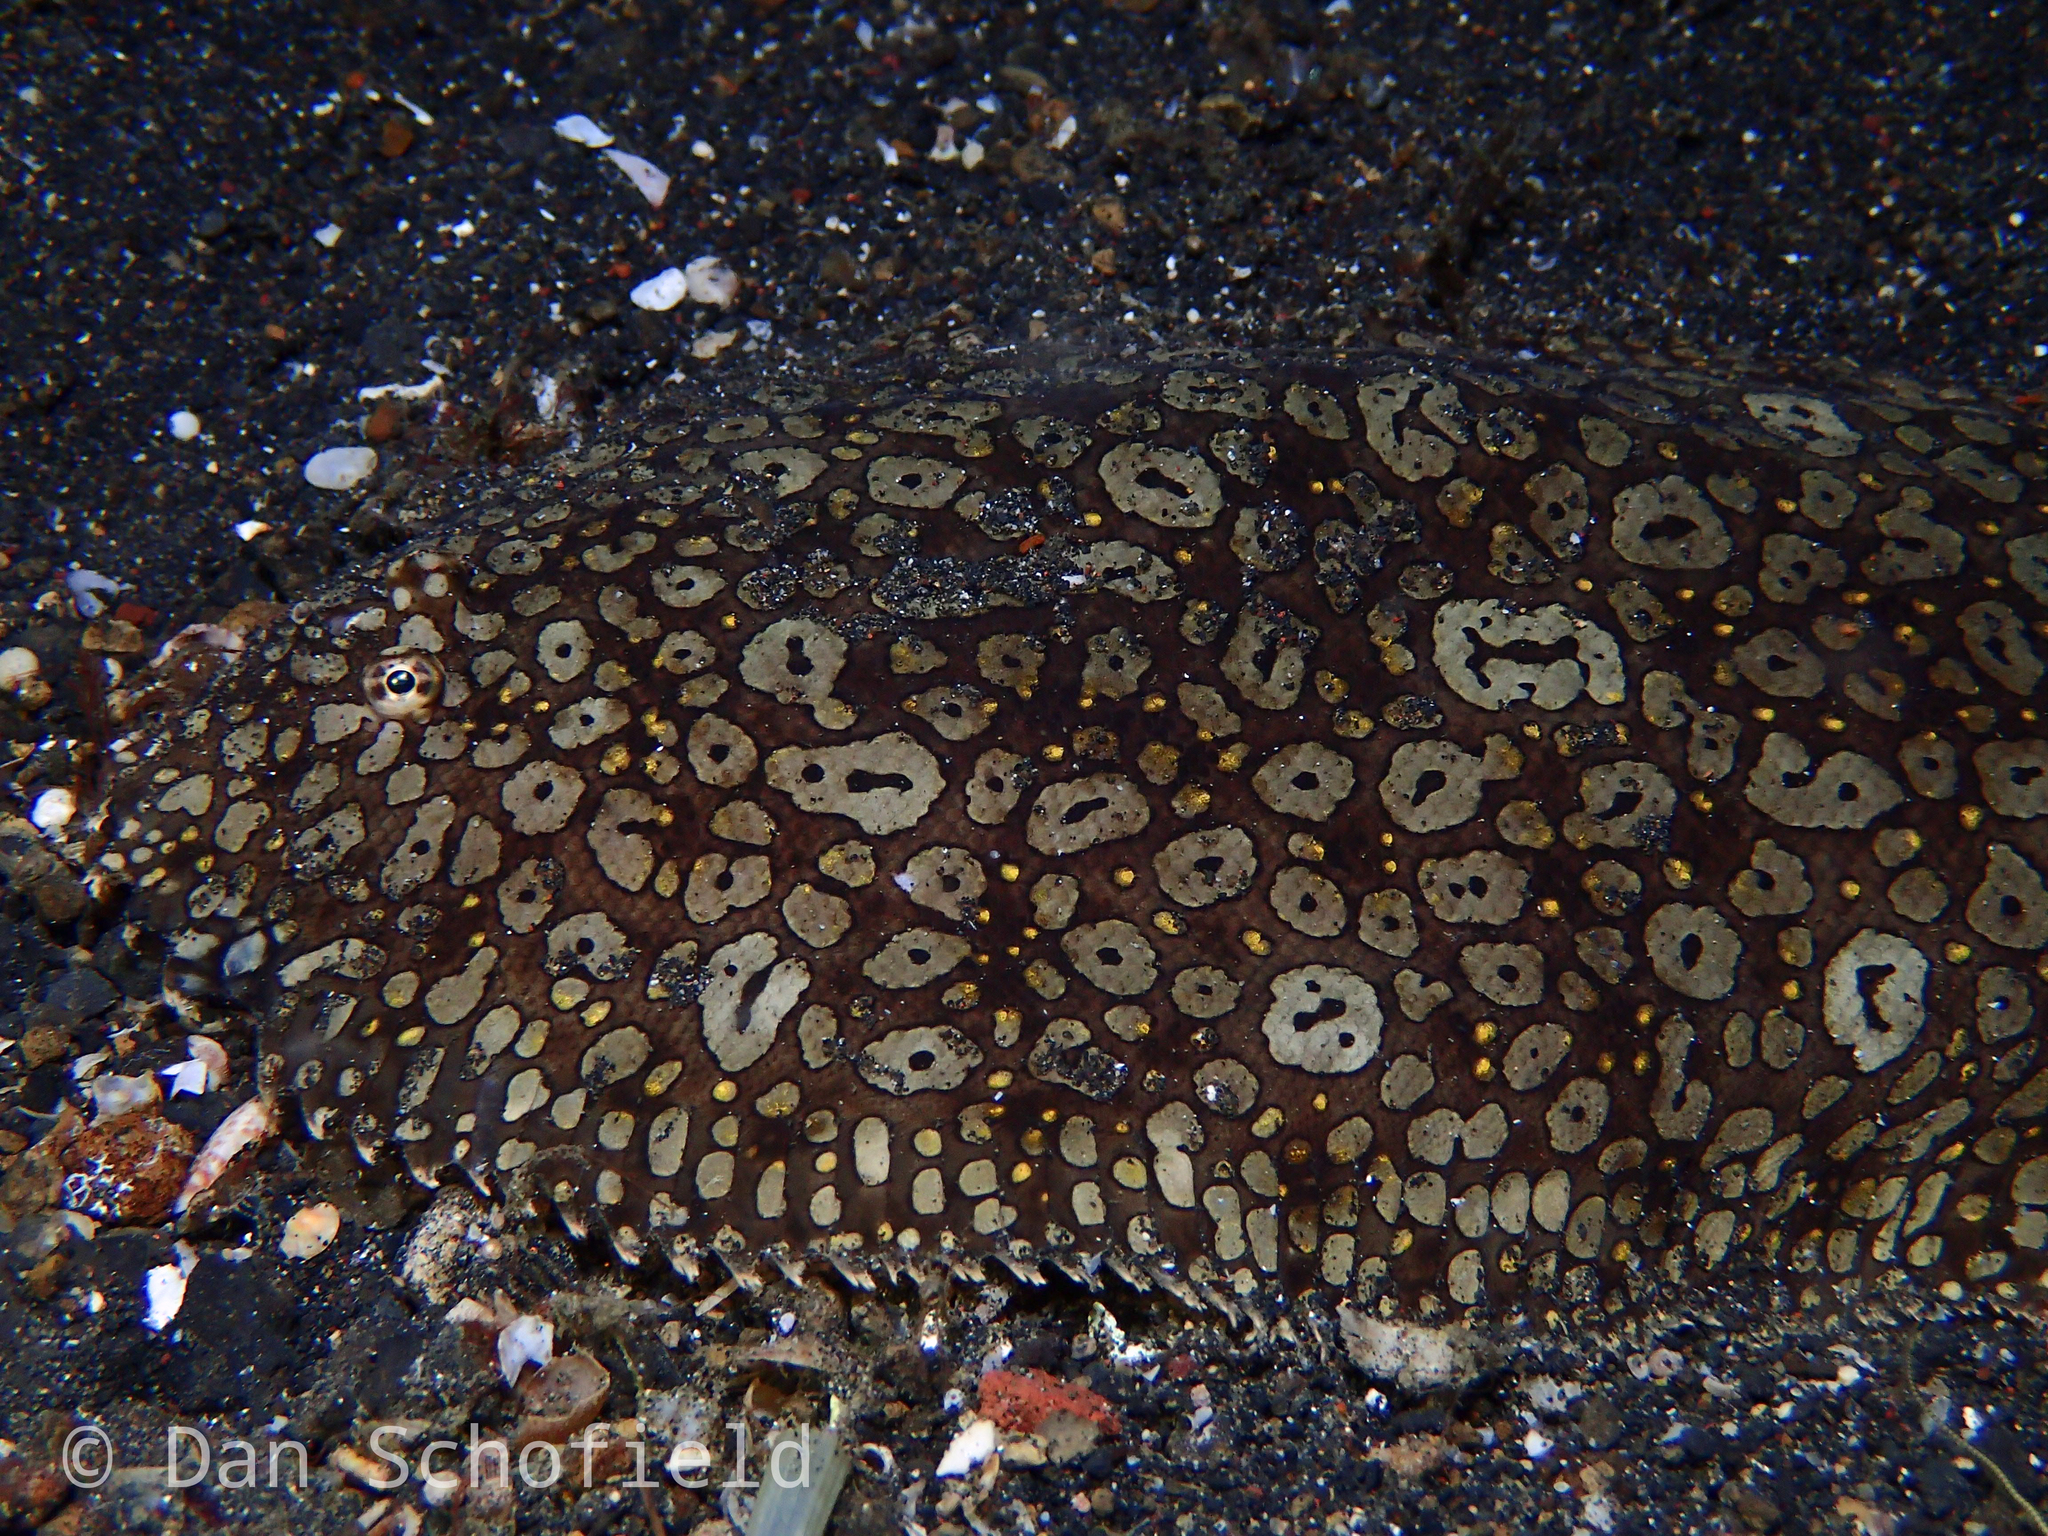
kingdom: Animalia
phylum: Chordata
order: Pleuronectiformes
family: Soleidae
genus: Pardachirus
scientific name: Pardachirus pavoninus
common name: Ocellated sole
